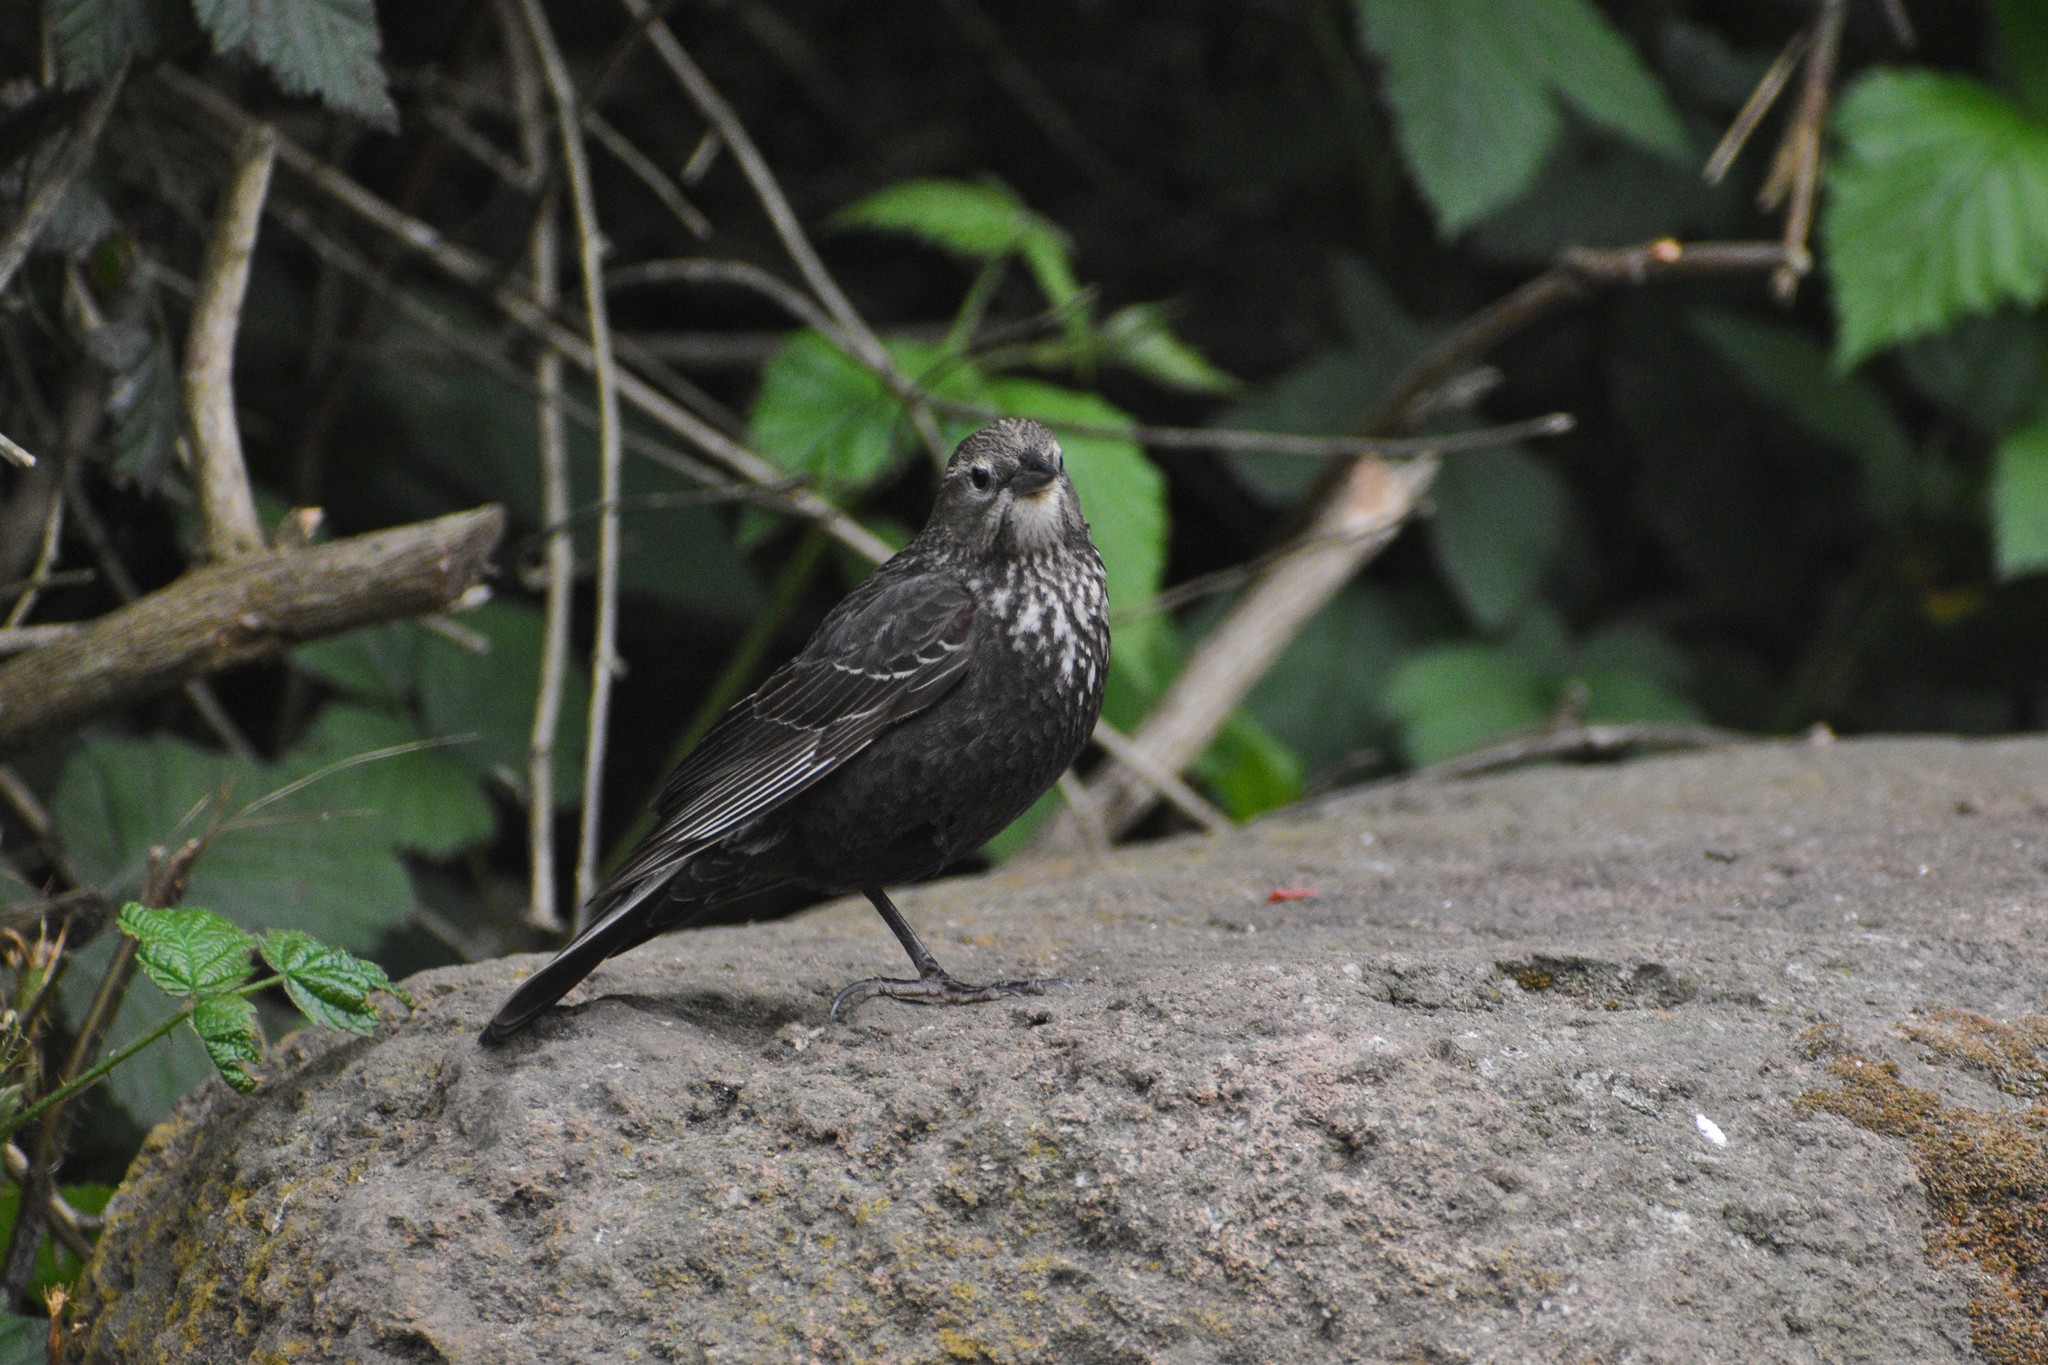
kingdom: Animalia
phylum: Chordata
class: Aves
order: Passeriformes
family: Icteridae
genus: Agelaius
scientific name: Agelaius phoeniceus
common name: Red-winged blackbird
